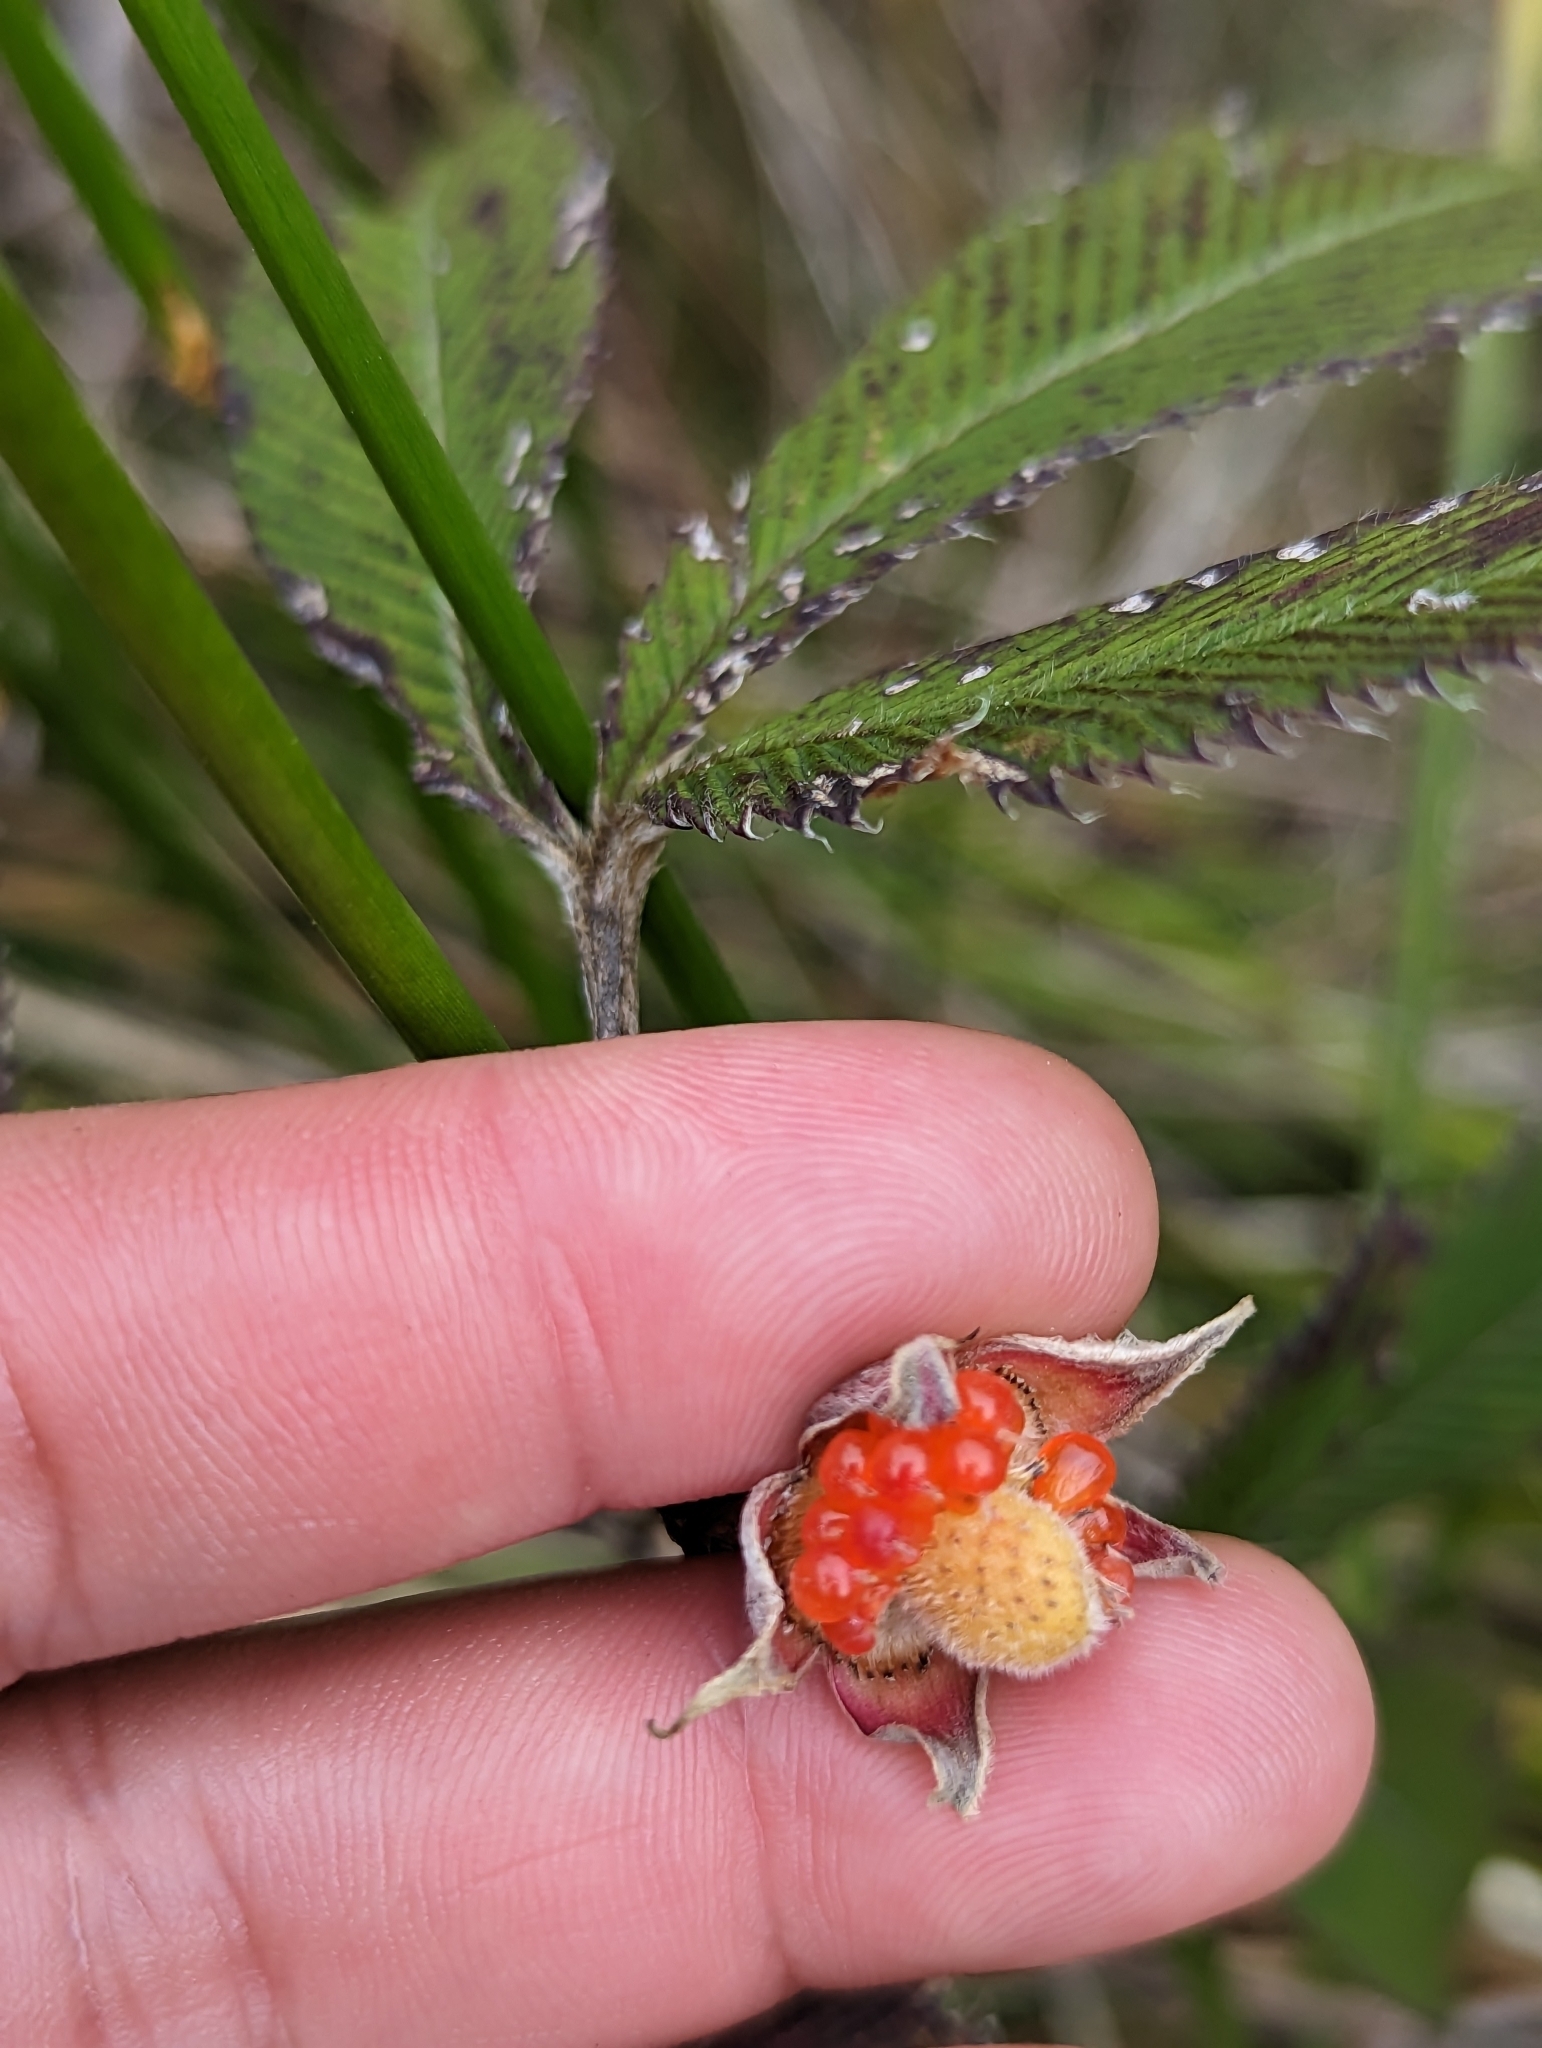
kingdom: Plantae
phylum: Tracheophyta
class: Magnoliopsida
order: Rosales
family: Rosaceae
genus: Rubus
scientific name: Rubus lineatus
